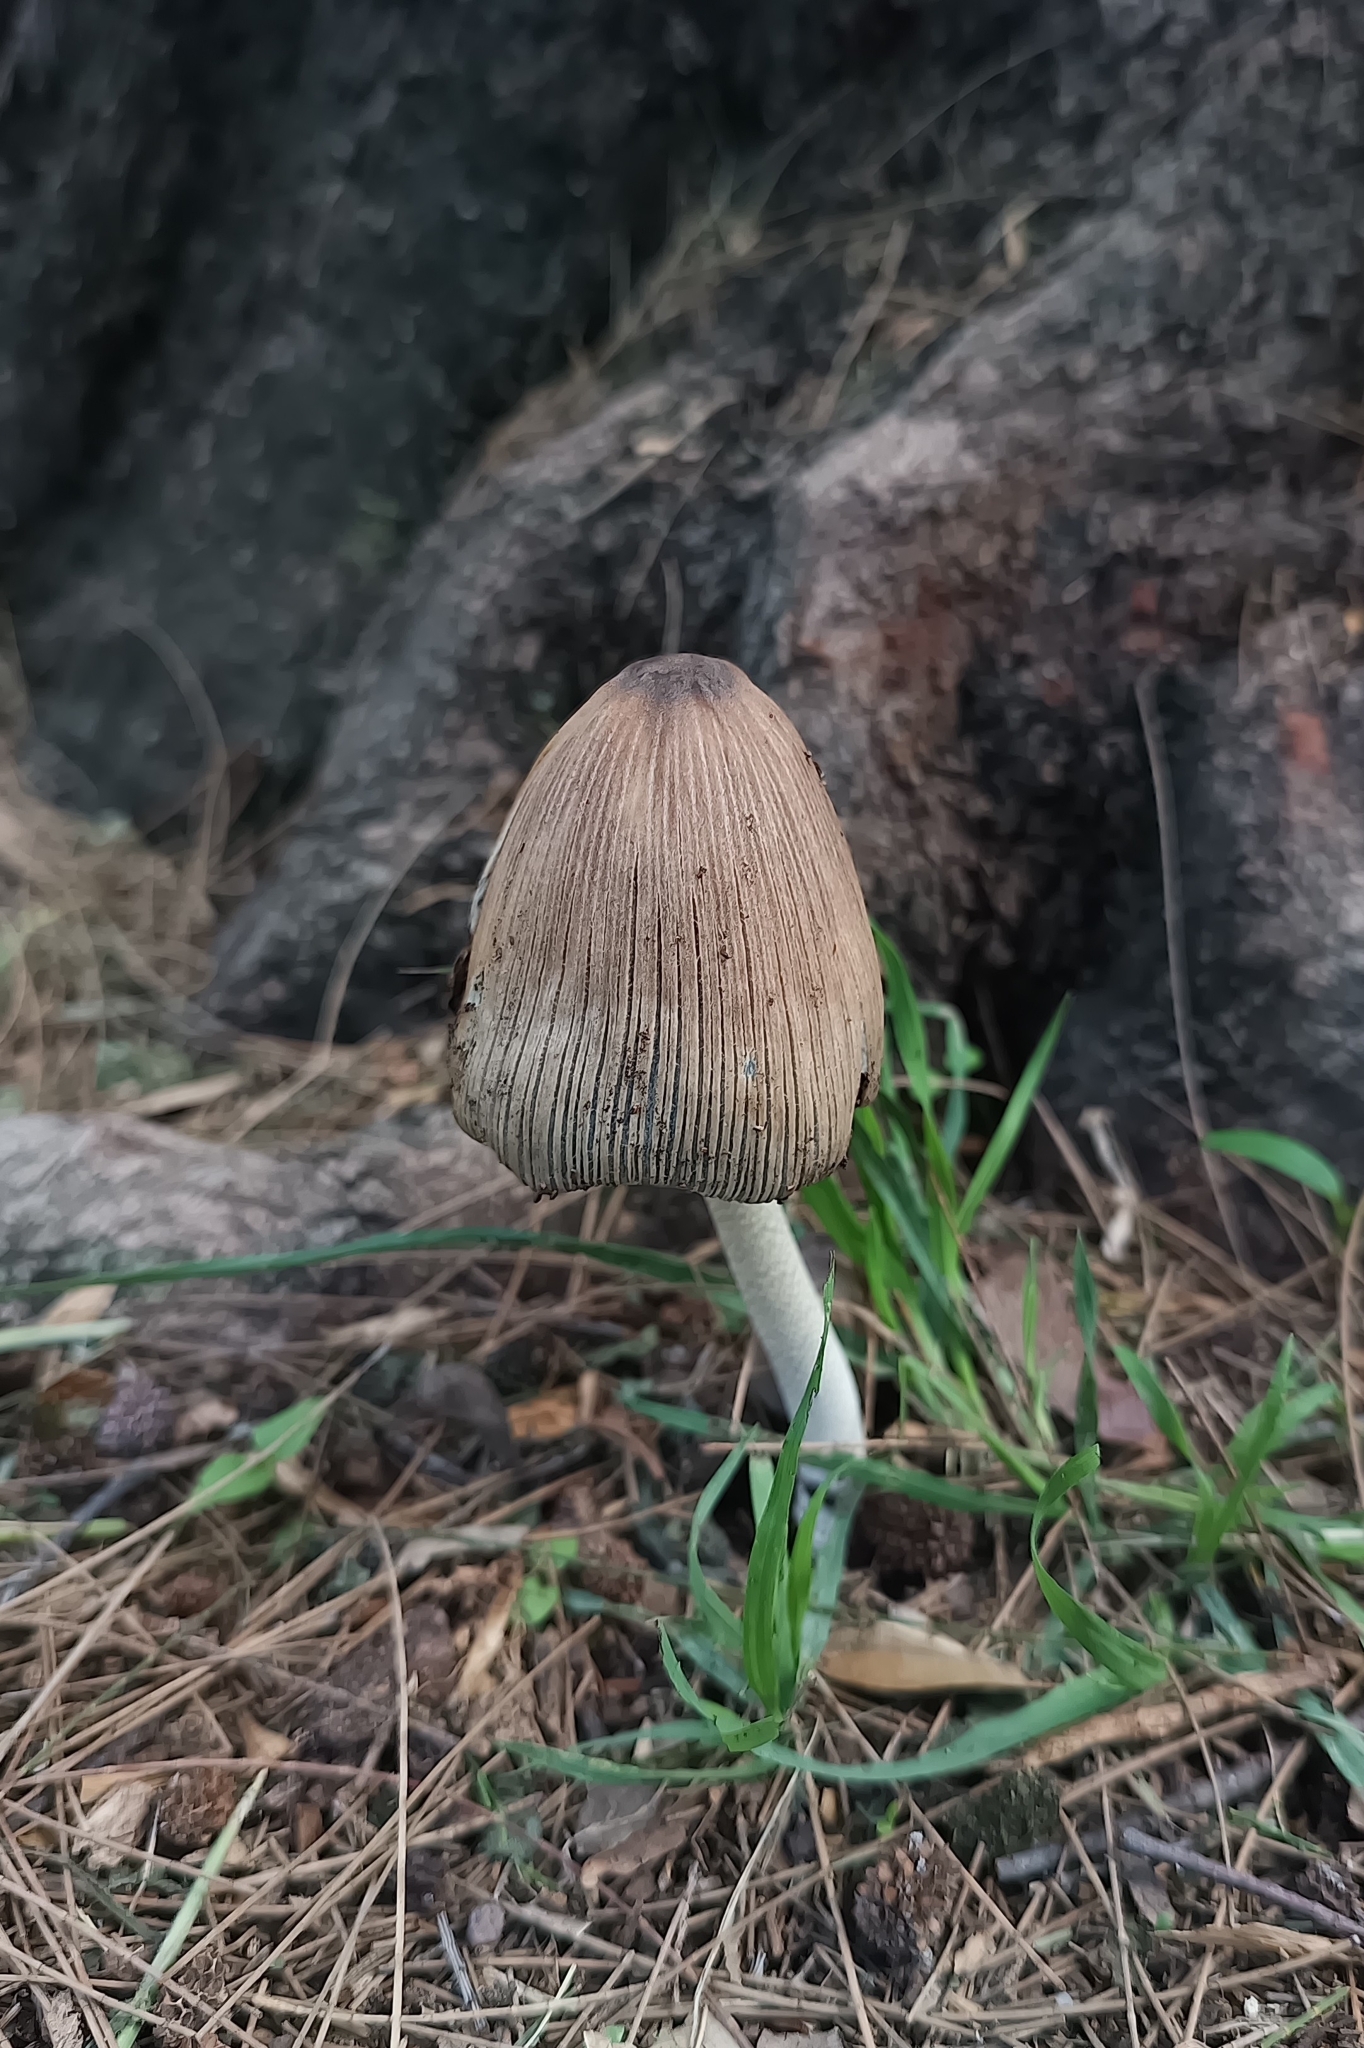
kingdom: Fungi
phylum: Basidiomycota
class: Agaricomycetes
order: Agaricales
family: Psathyrellaceae
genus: Coprinopsis
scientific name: Coprinopsis alopecia
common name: Distinguished inkcap
